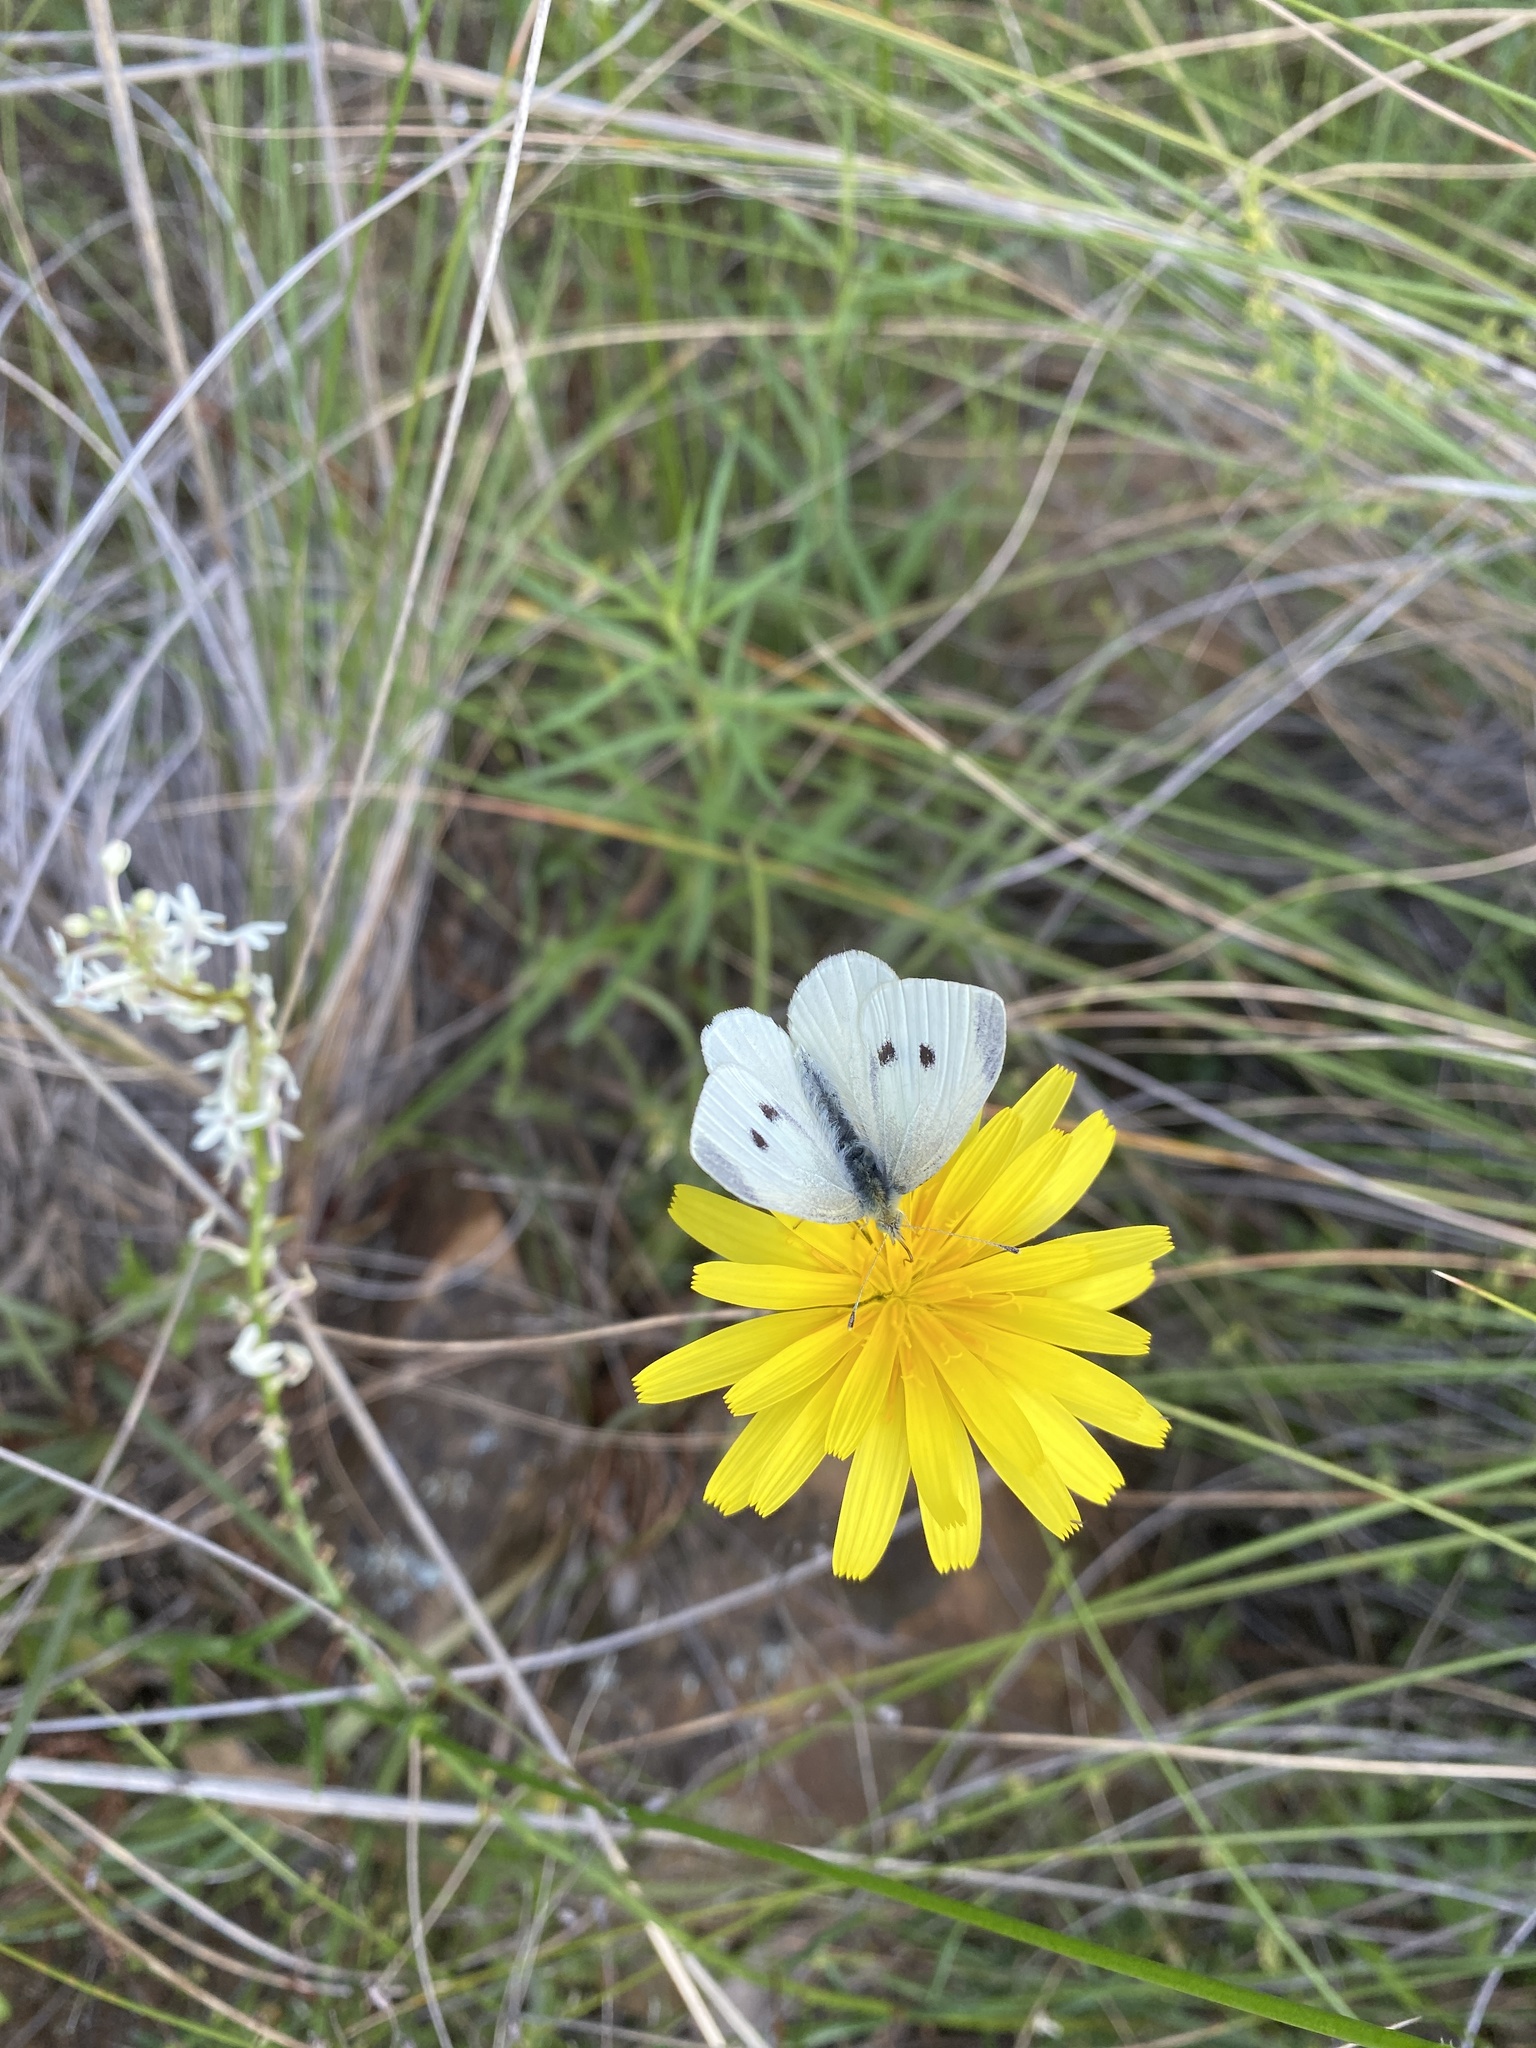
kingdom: Animalia
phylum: Arthropoda
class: Insecta
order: Lepidoptera
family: Pieridae
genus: Pieris
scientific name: Pieris rapae
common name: Small white
